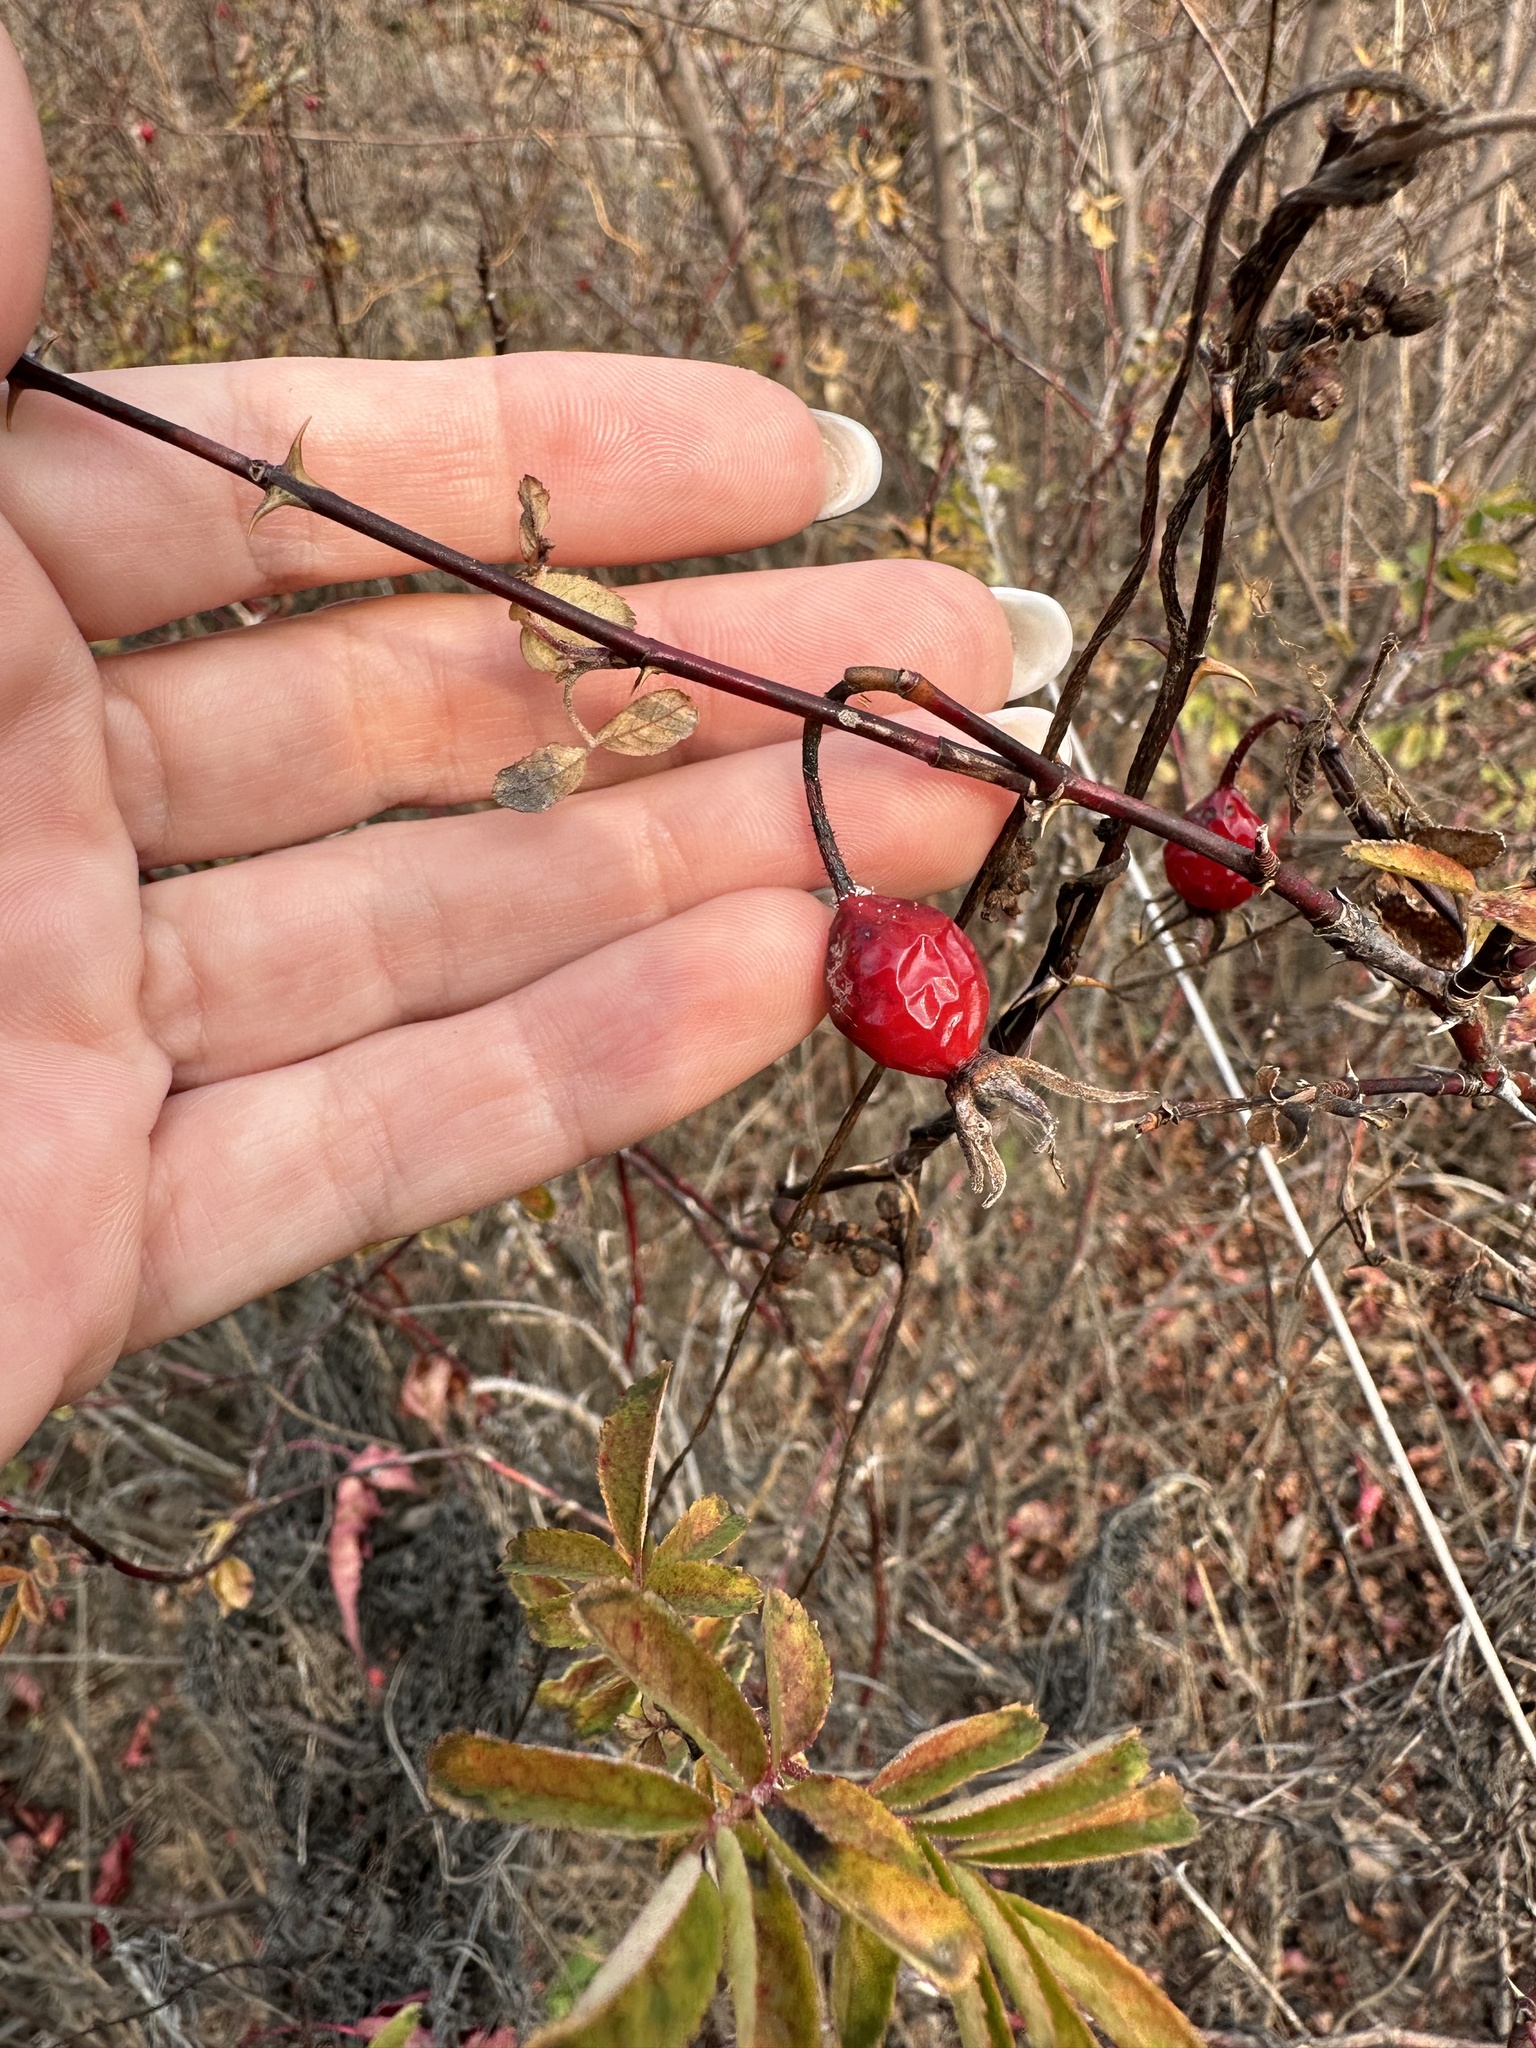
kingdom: Plantae
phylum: Tracheophyta
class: Magnoliopsida
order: Rosales
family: Rosaceae
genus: Rosa
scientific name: Rosa davurica
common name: Amur rose
